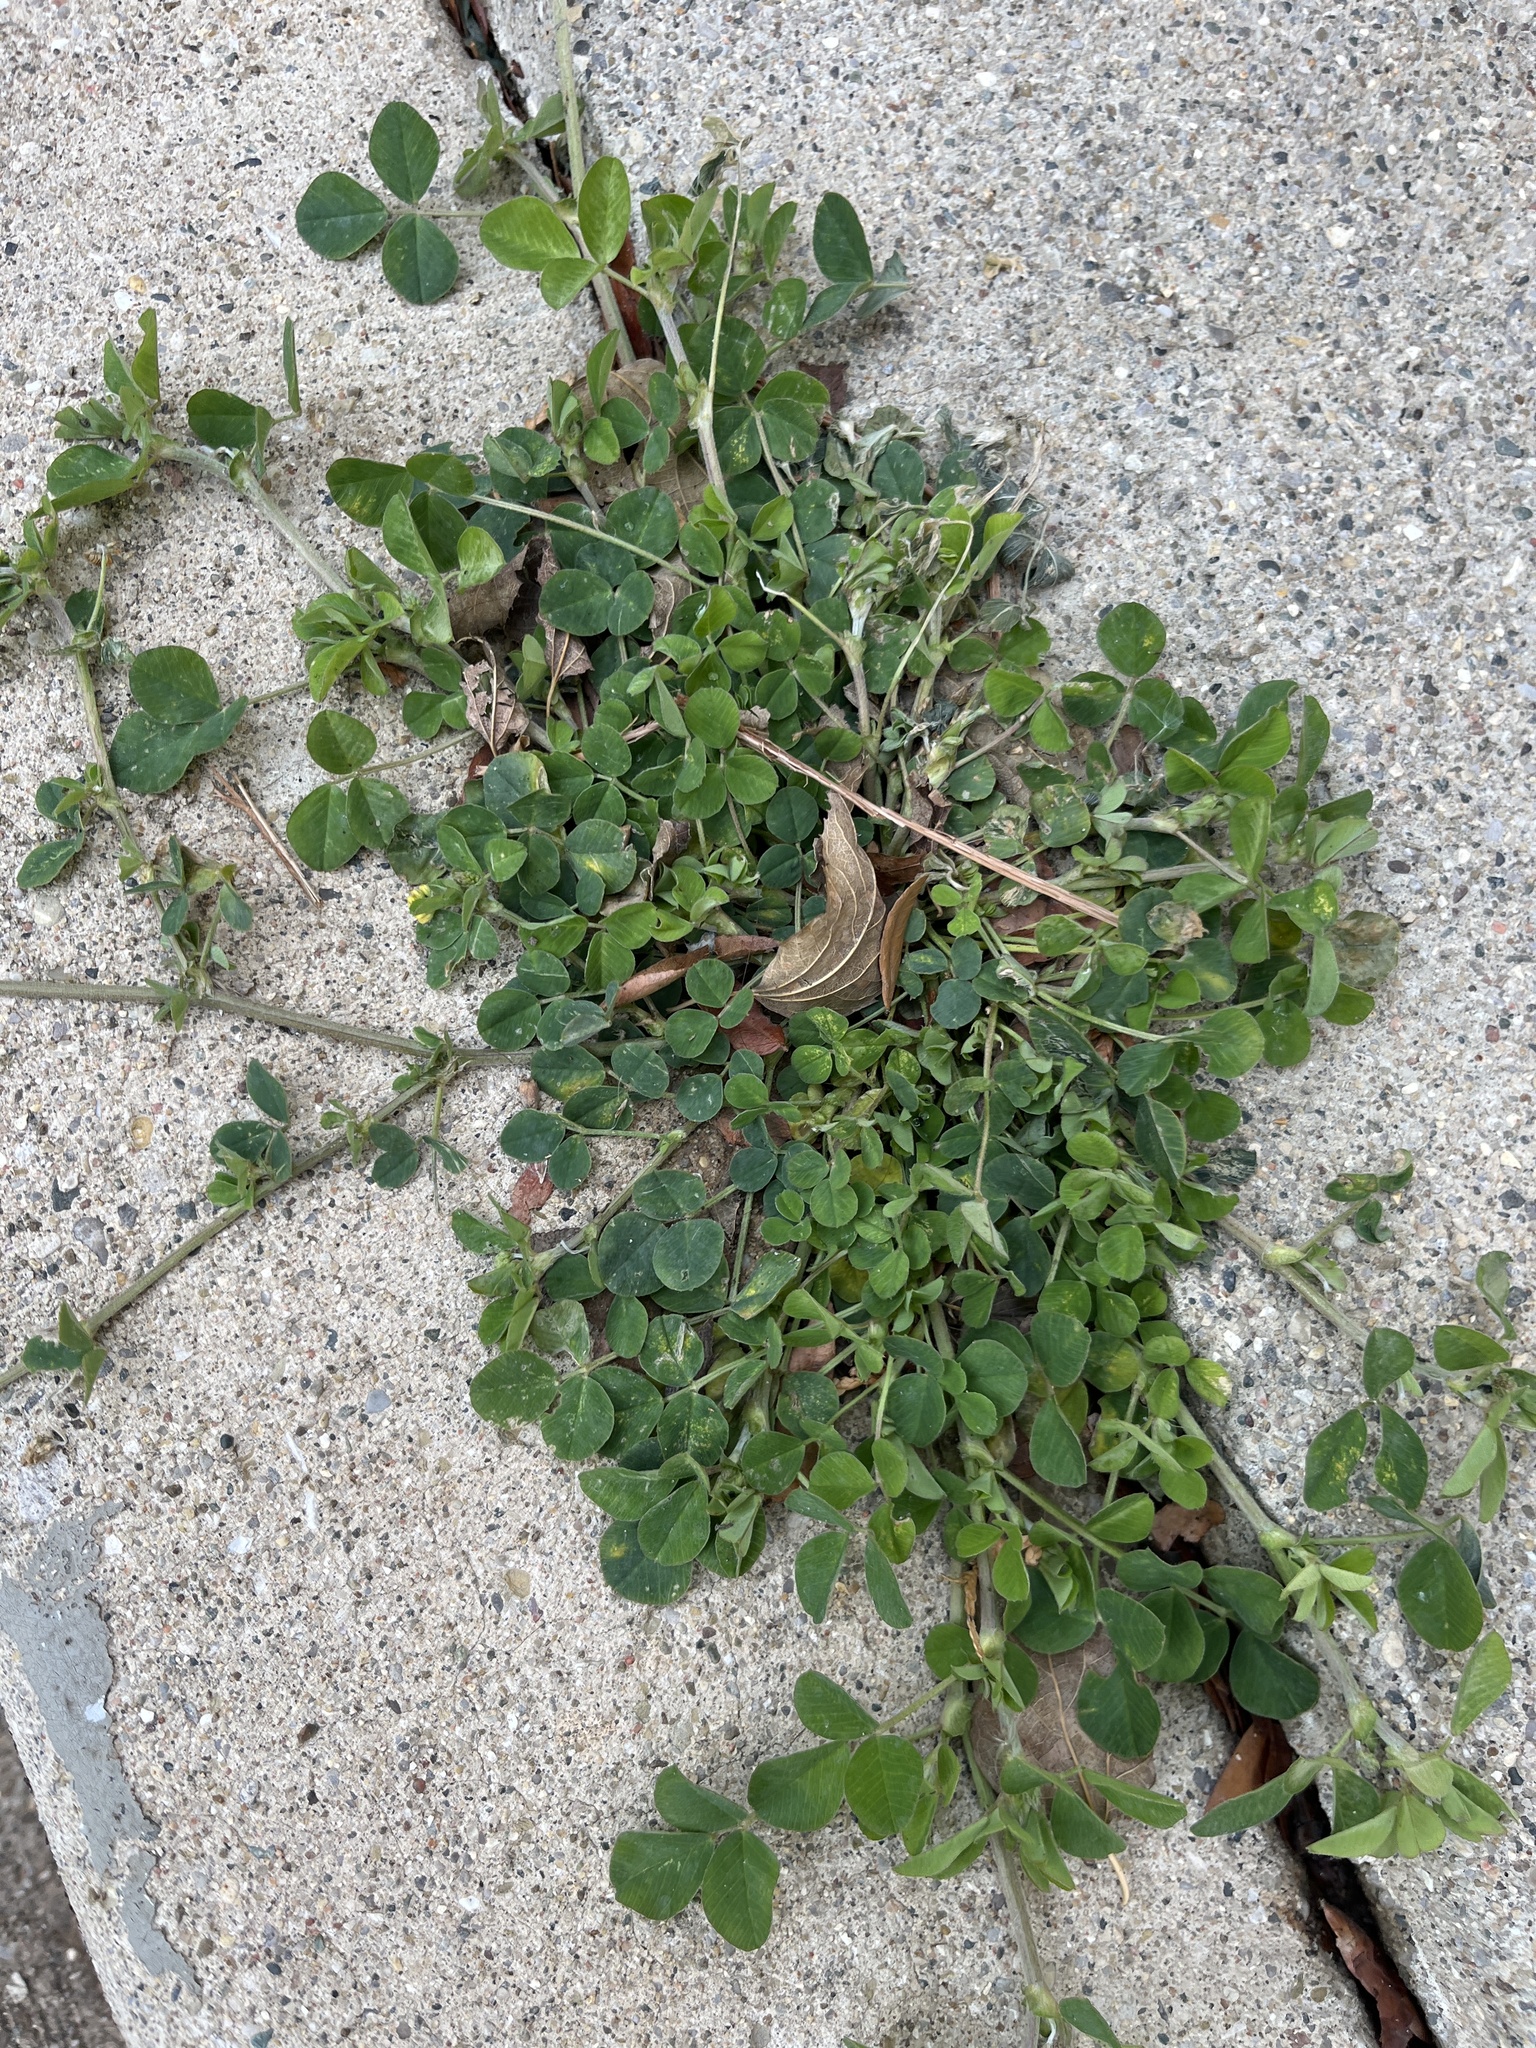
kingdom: Plantae
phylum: Tracheophyta
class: Magnoliopsida
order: Fabales
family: Fabaceae
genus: Medicago
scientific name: Medicago lupulina
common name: Black medick
